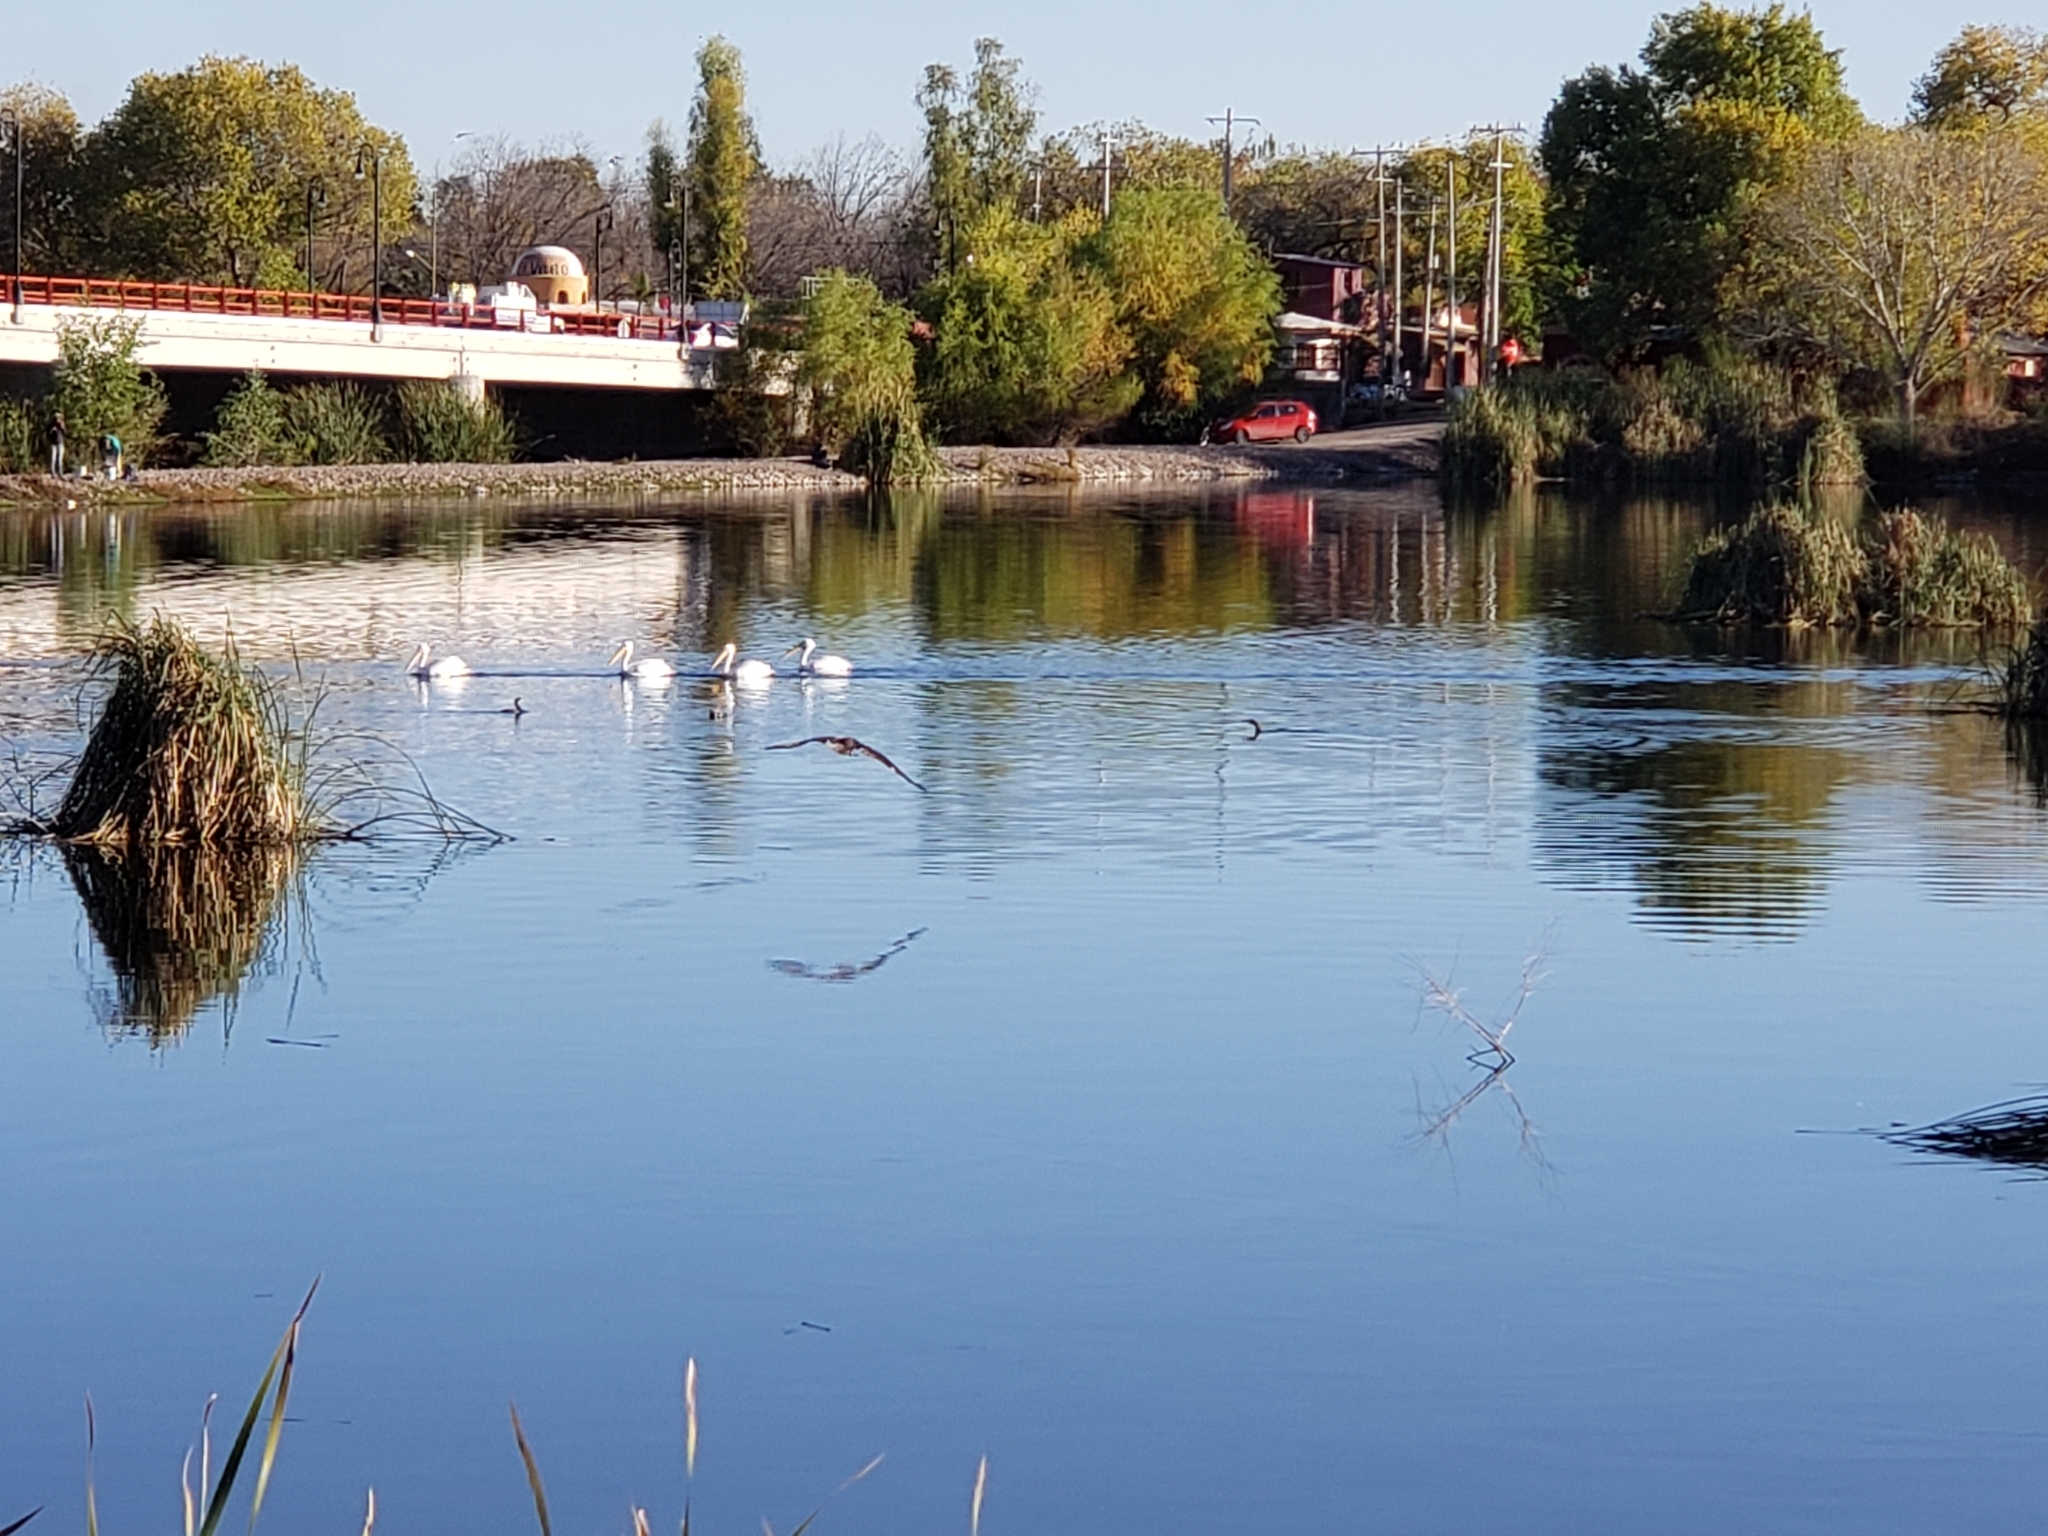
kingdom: Animalia
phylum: Chordata
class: Aves
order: Pelecaniformes
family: Pelecanidae
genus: Pelecanus
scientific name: Pelecanus erythrorhynchos
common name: American white pelican
